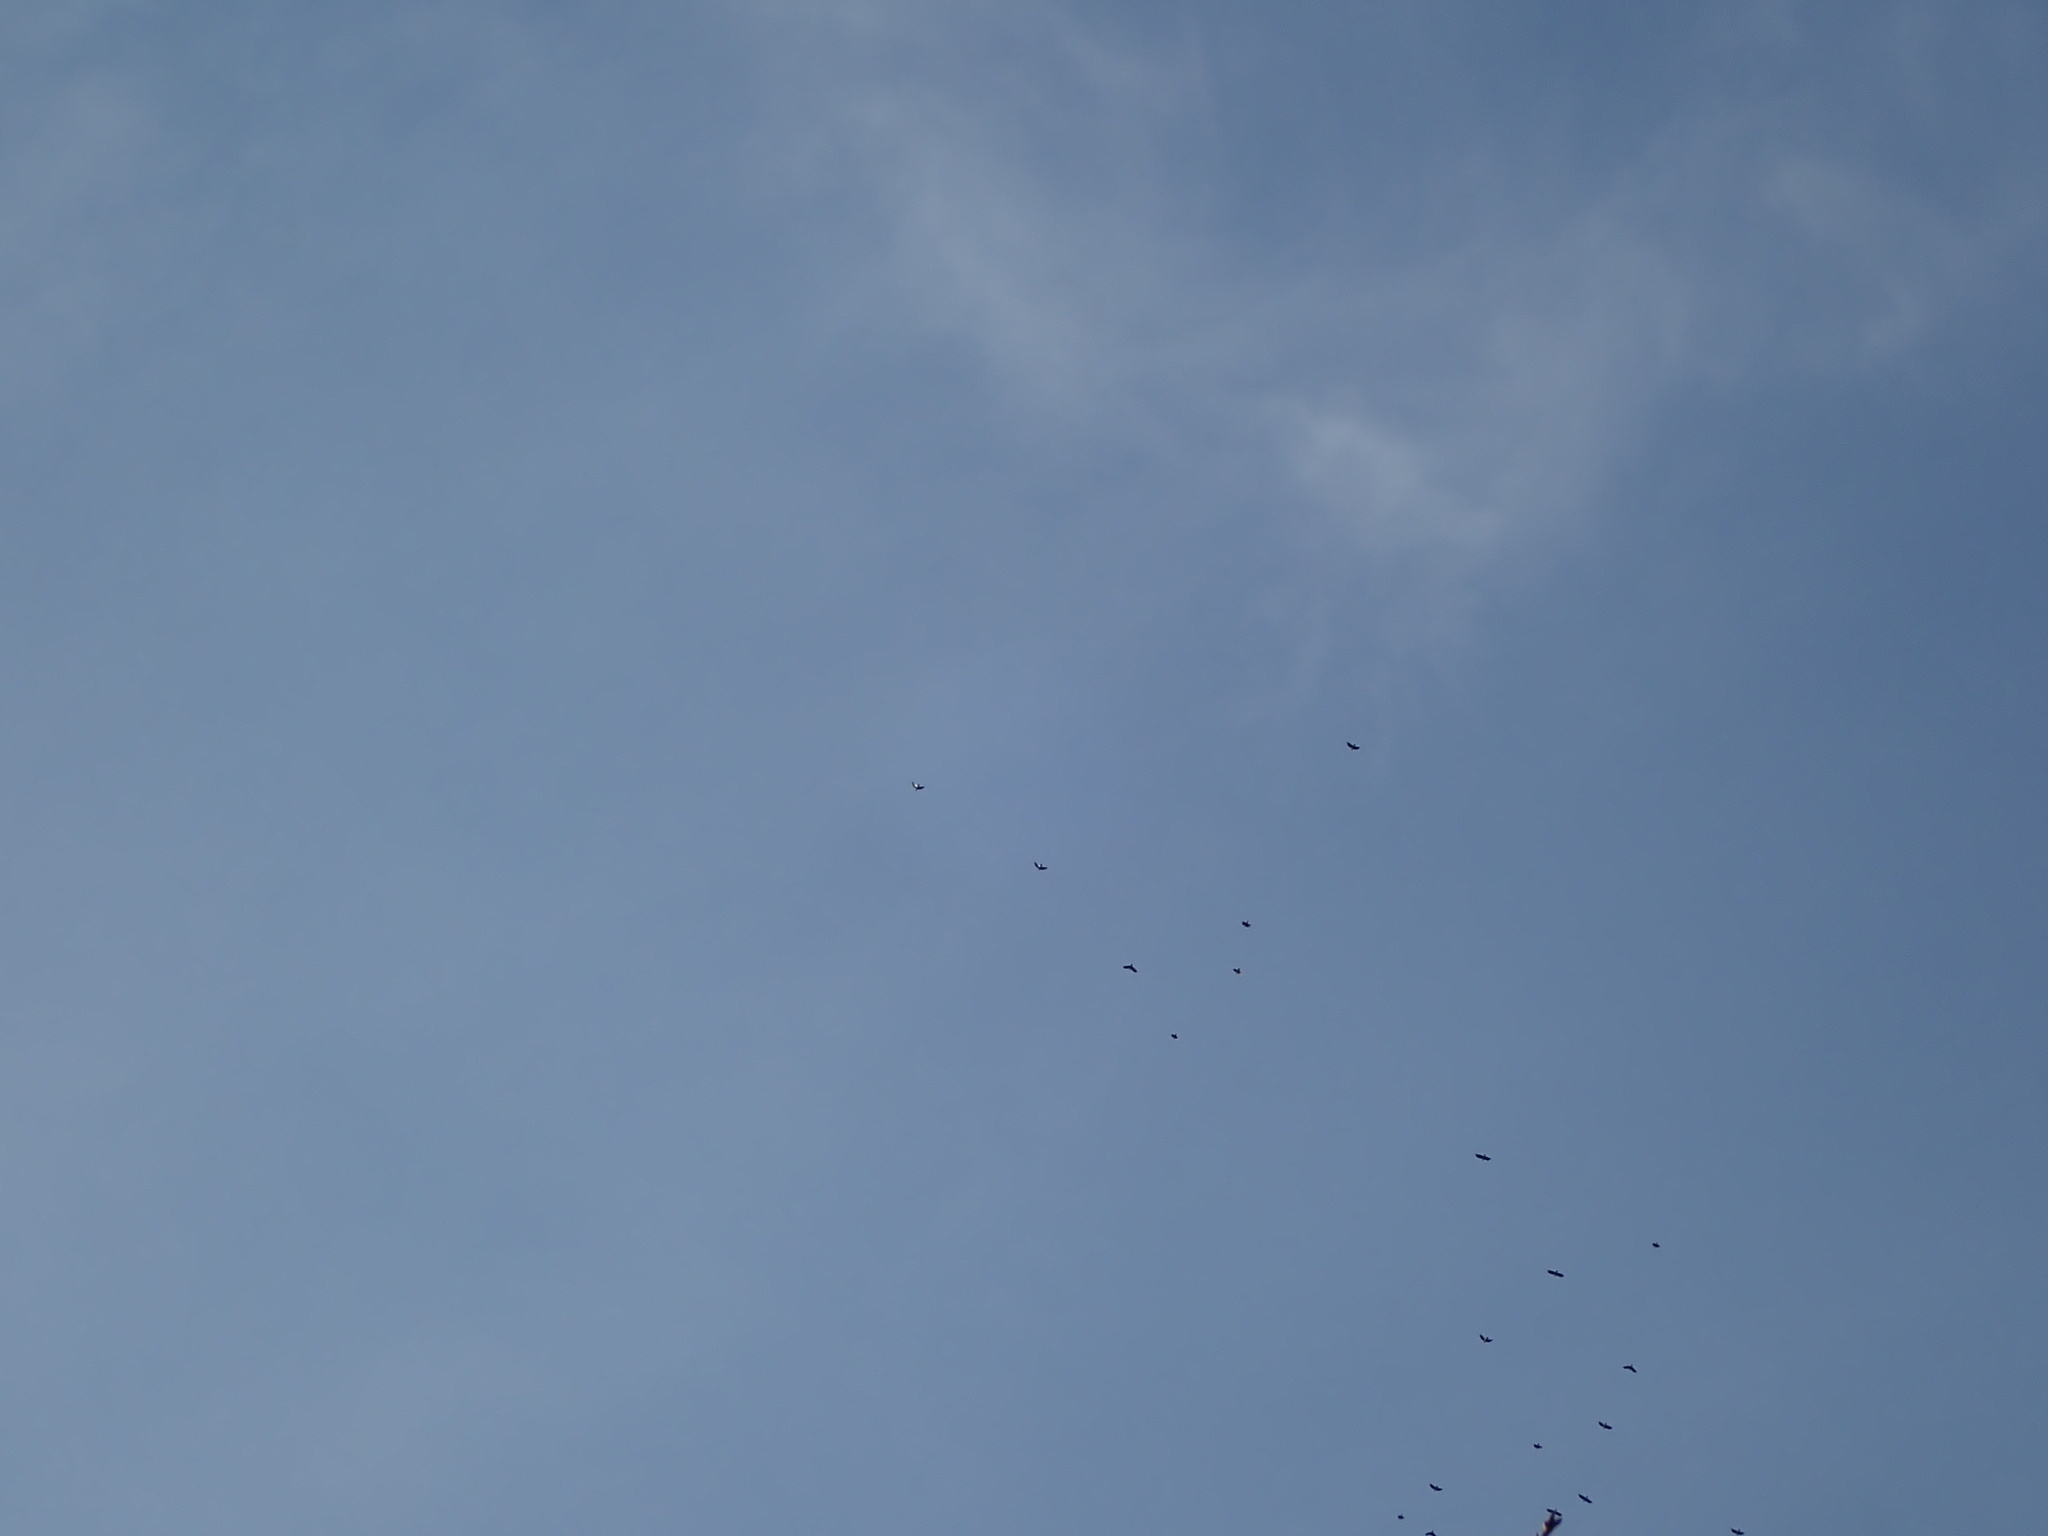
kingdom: Animalia
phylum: Chordata
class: Aves
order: Passeriformes
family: Corvidae
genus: Corvus
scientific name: Corvus brachyrhynchos
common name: American crow
